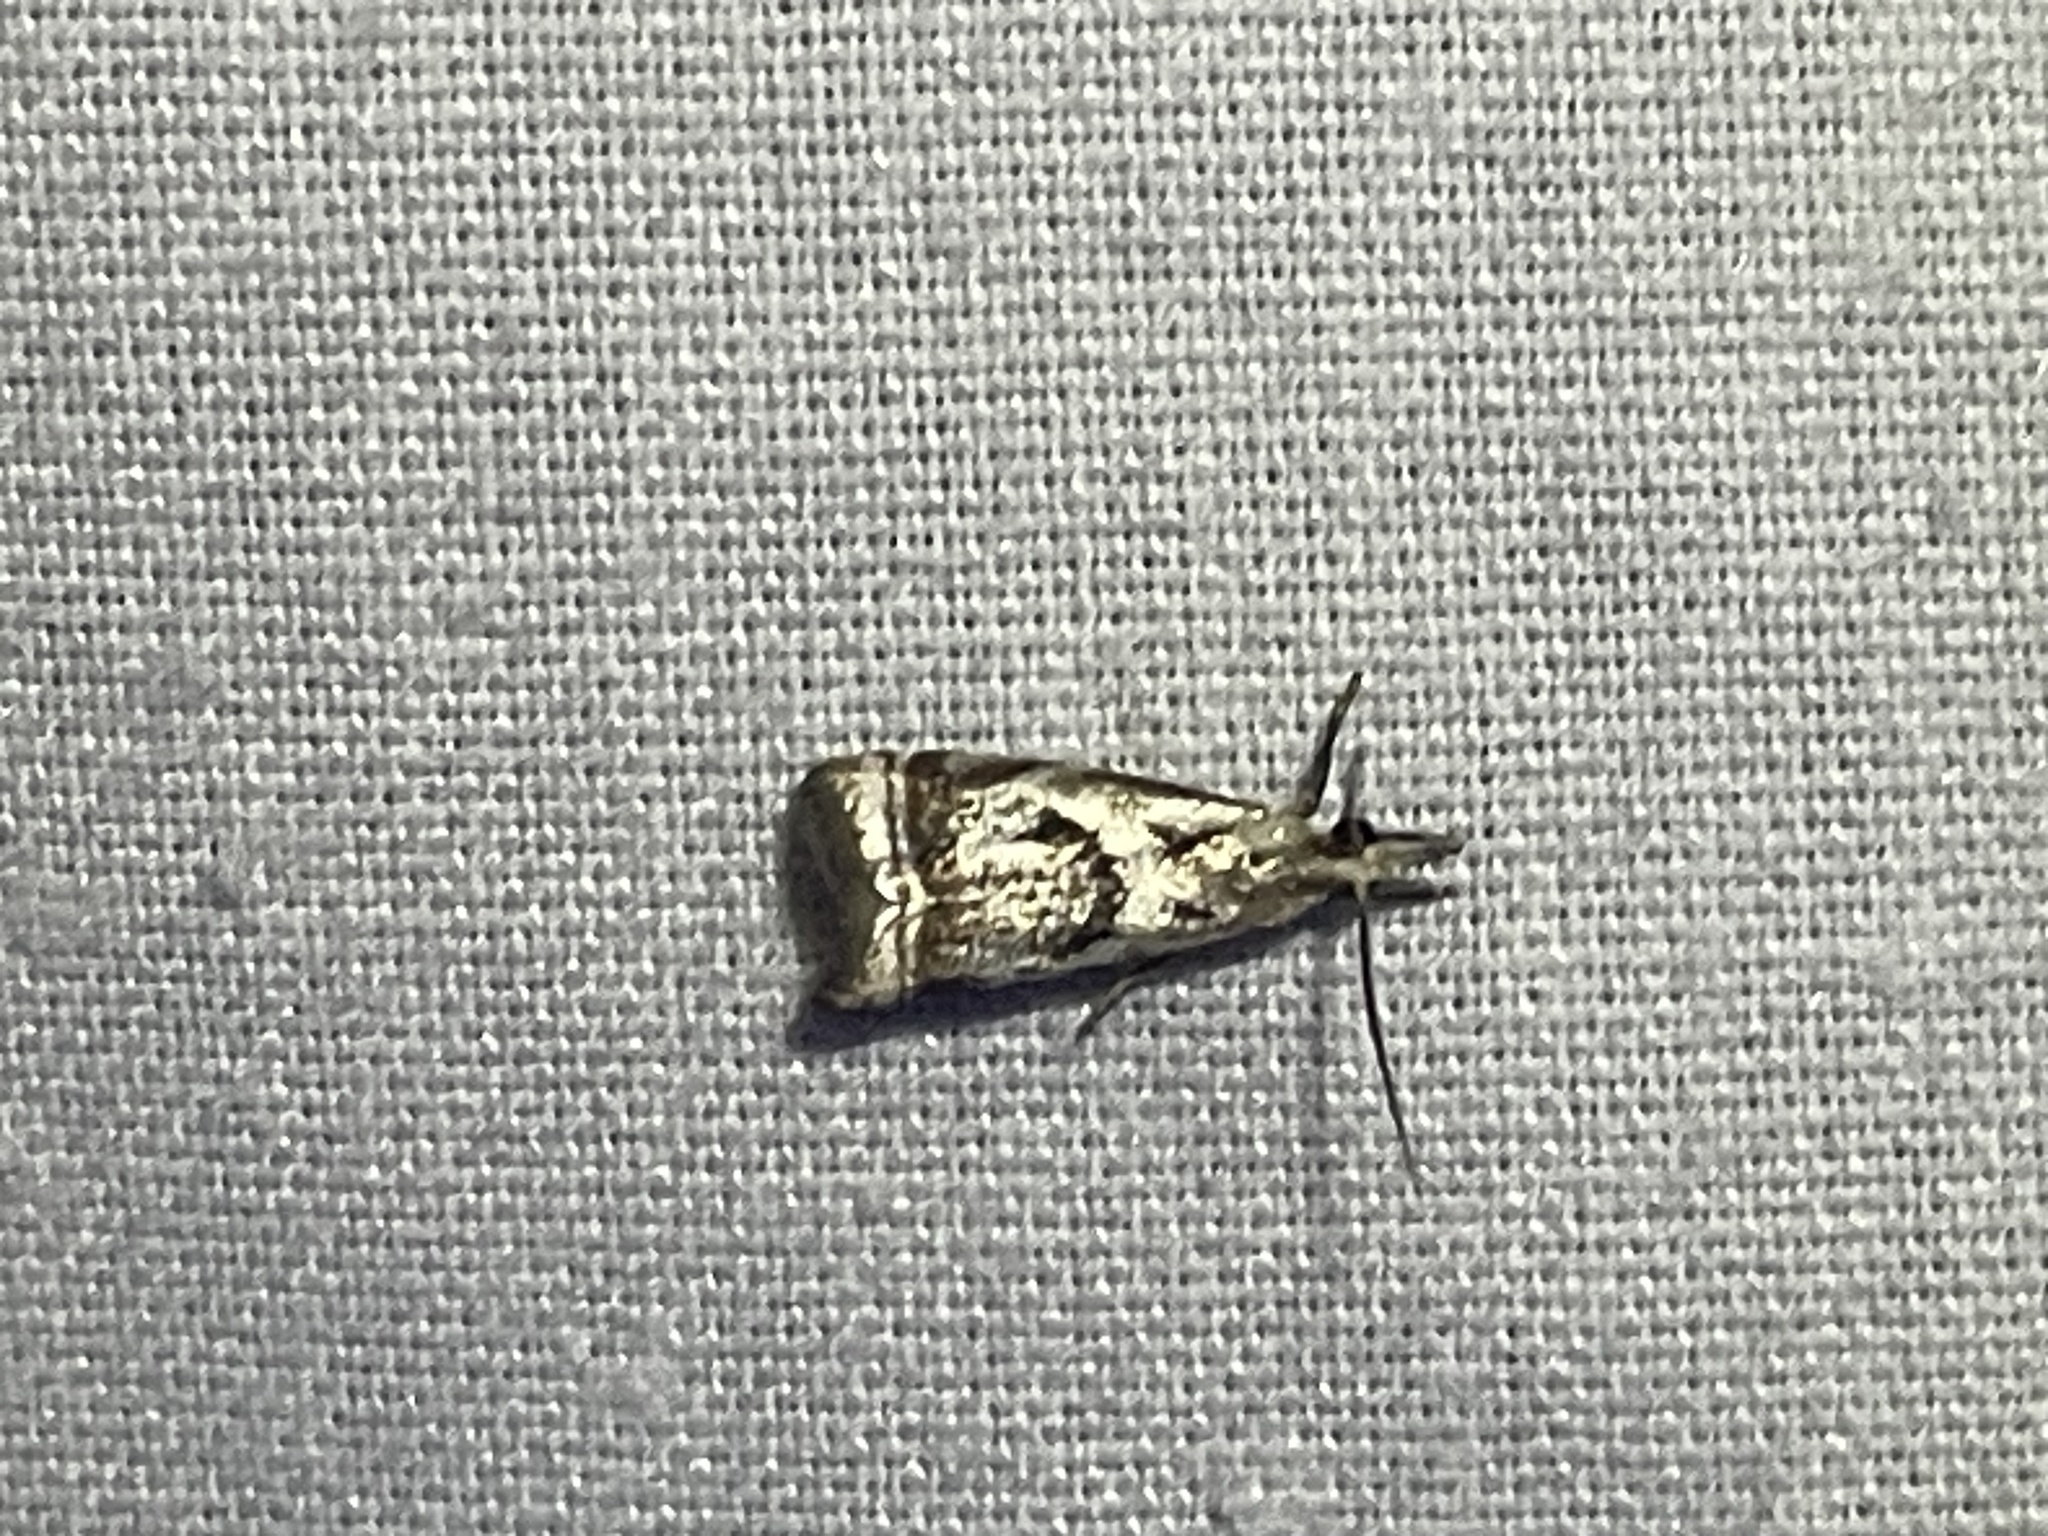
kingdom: Animalia
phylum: Arthropoda
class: Insecta
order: Lepidoptera
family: Crambidae
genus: Microcrambus
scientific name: Microcrambus elegans
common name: Elegant grass-veneer
